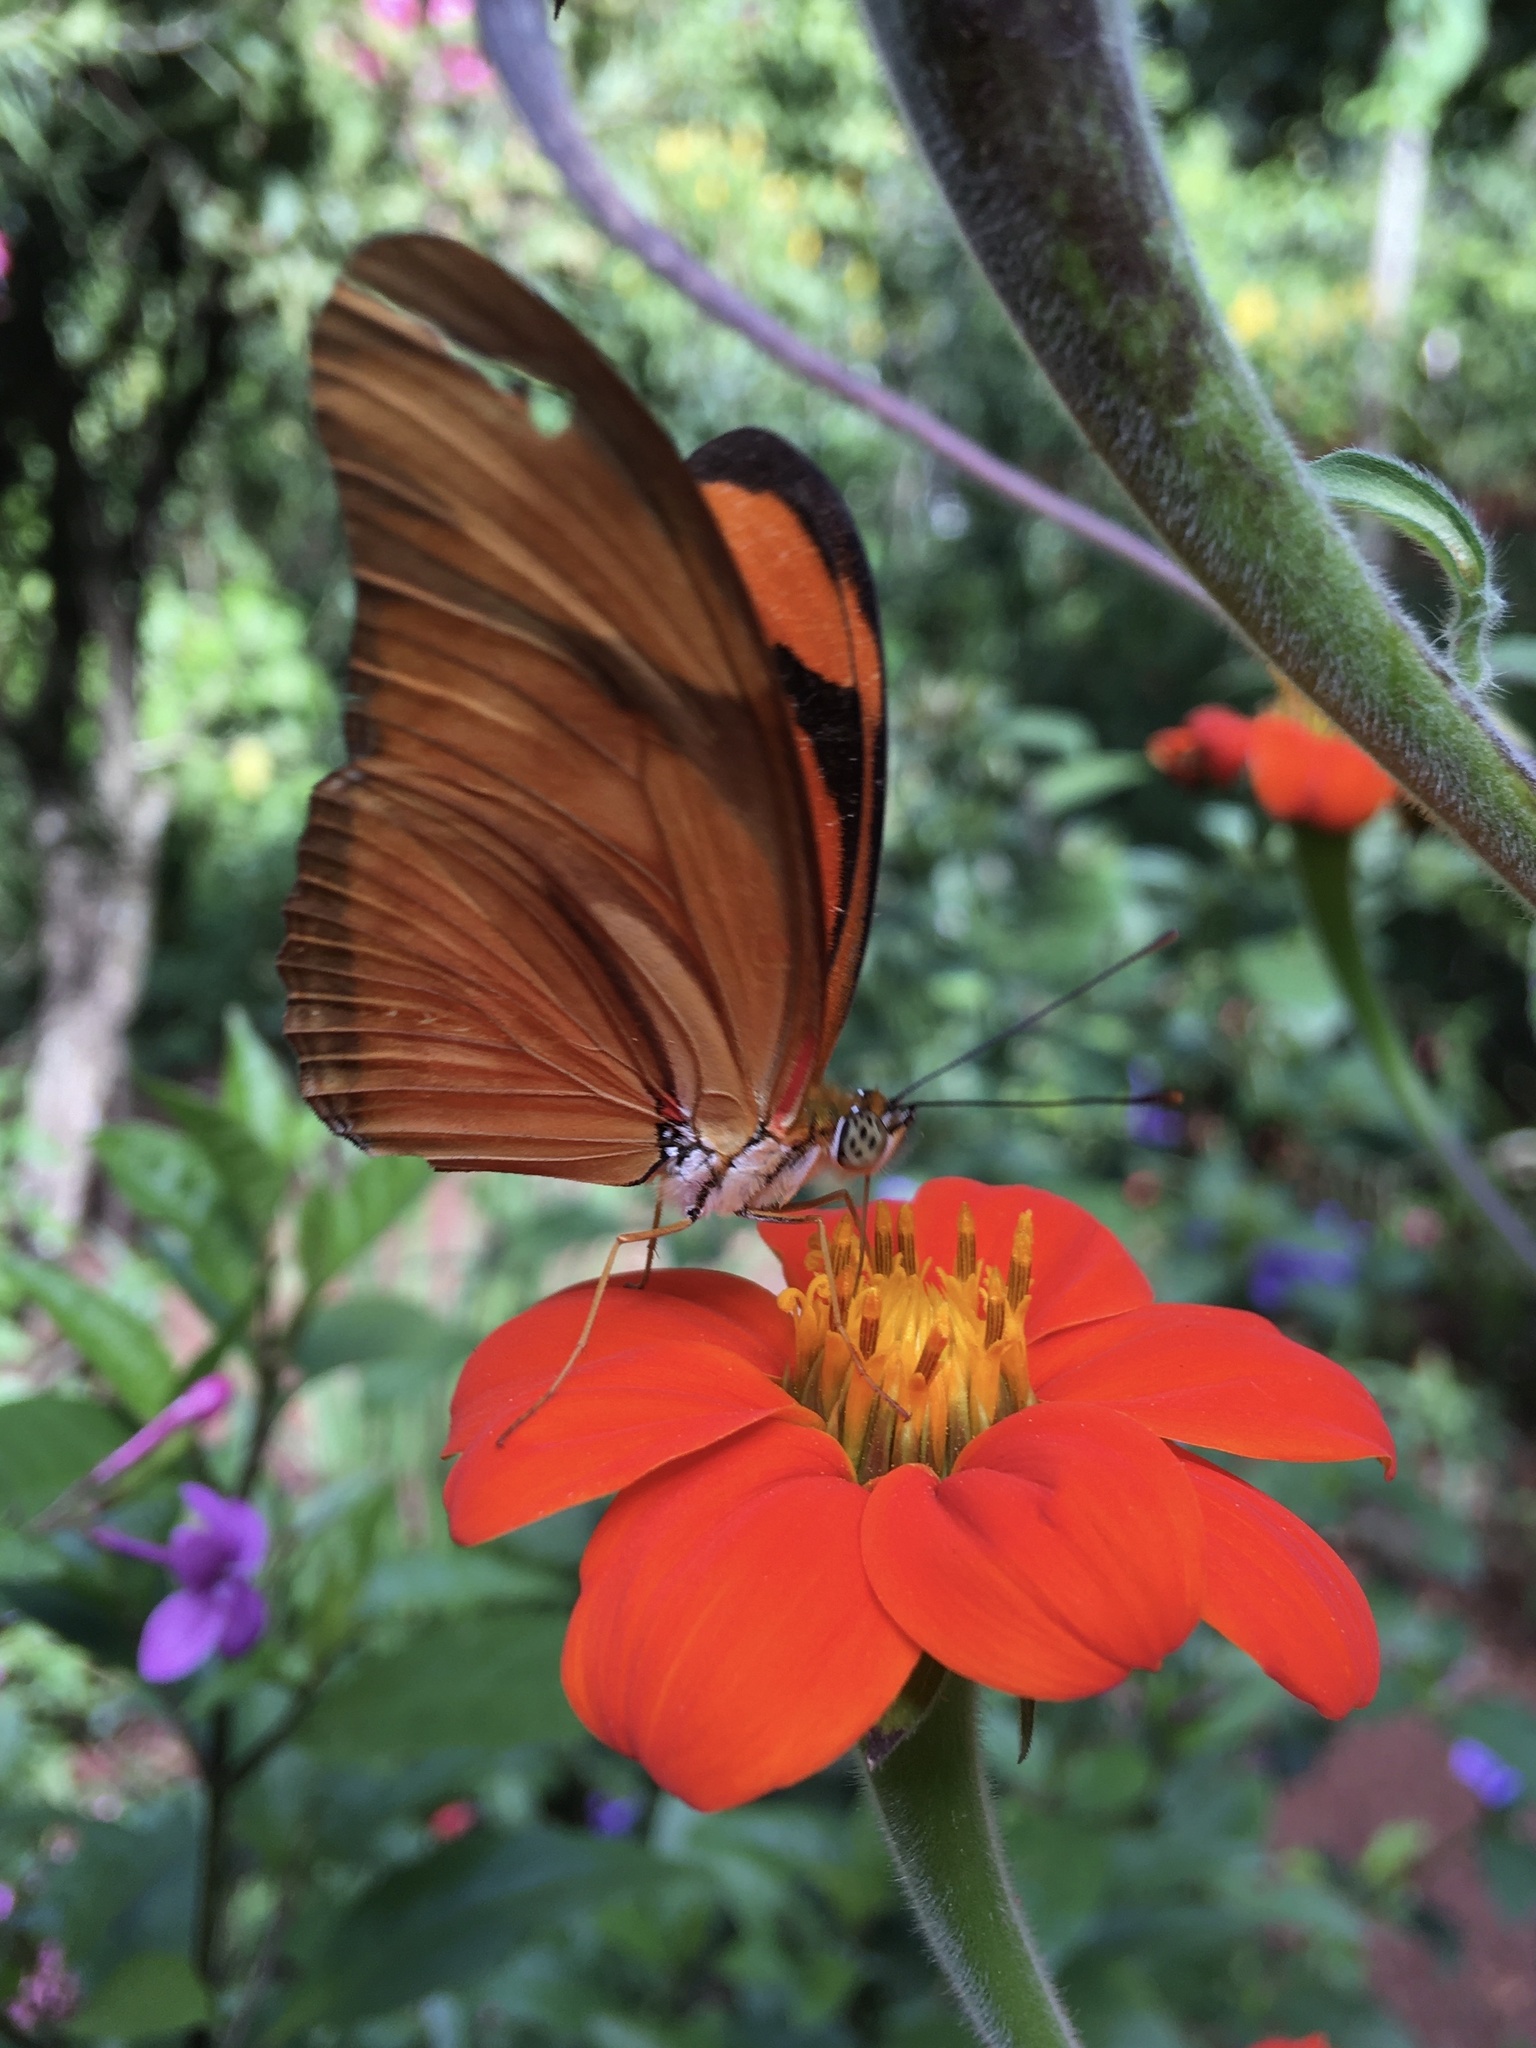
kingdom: Animalia
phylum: Arthropoda
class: Insecta
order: Lepidoptera
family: Nymphalidae
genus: Dryas
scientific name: Dryas iulia
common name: Flambeau
